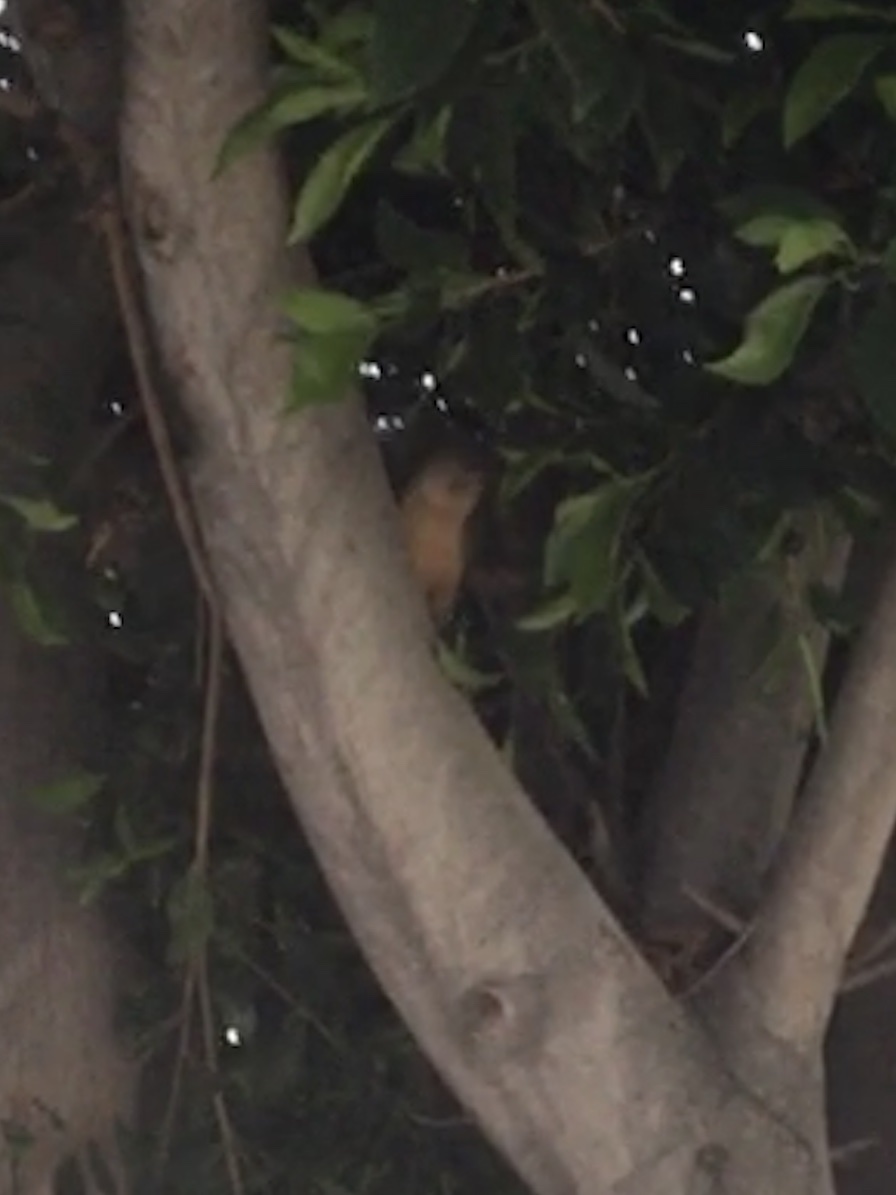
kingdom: Animalia
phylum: Chordata
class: Mammalia
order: Rodentia
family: Sciuridae
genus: Sciurus
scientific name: Sciurus niger
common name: Fox squirrel
